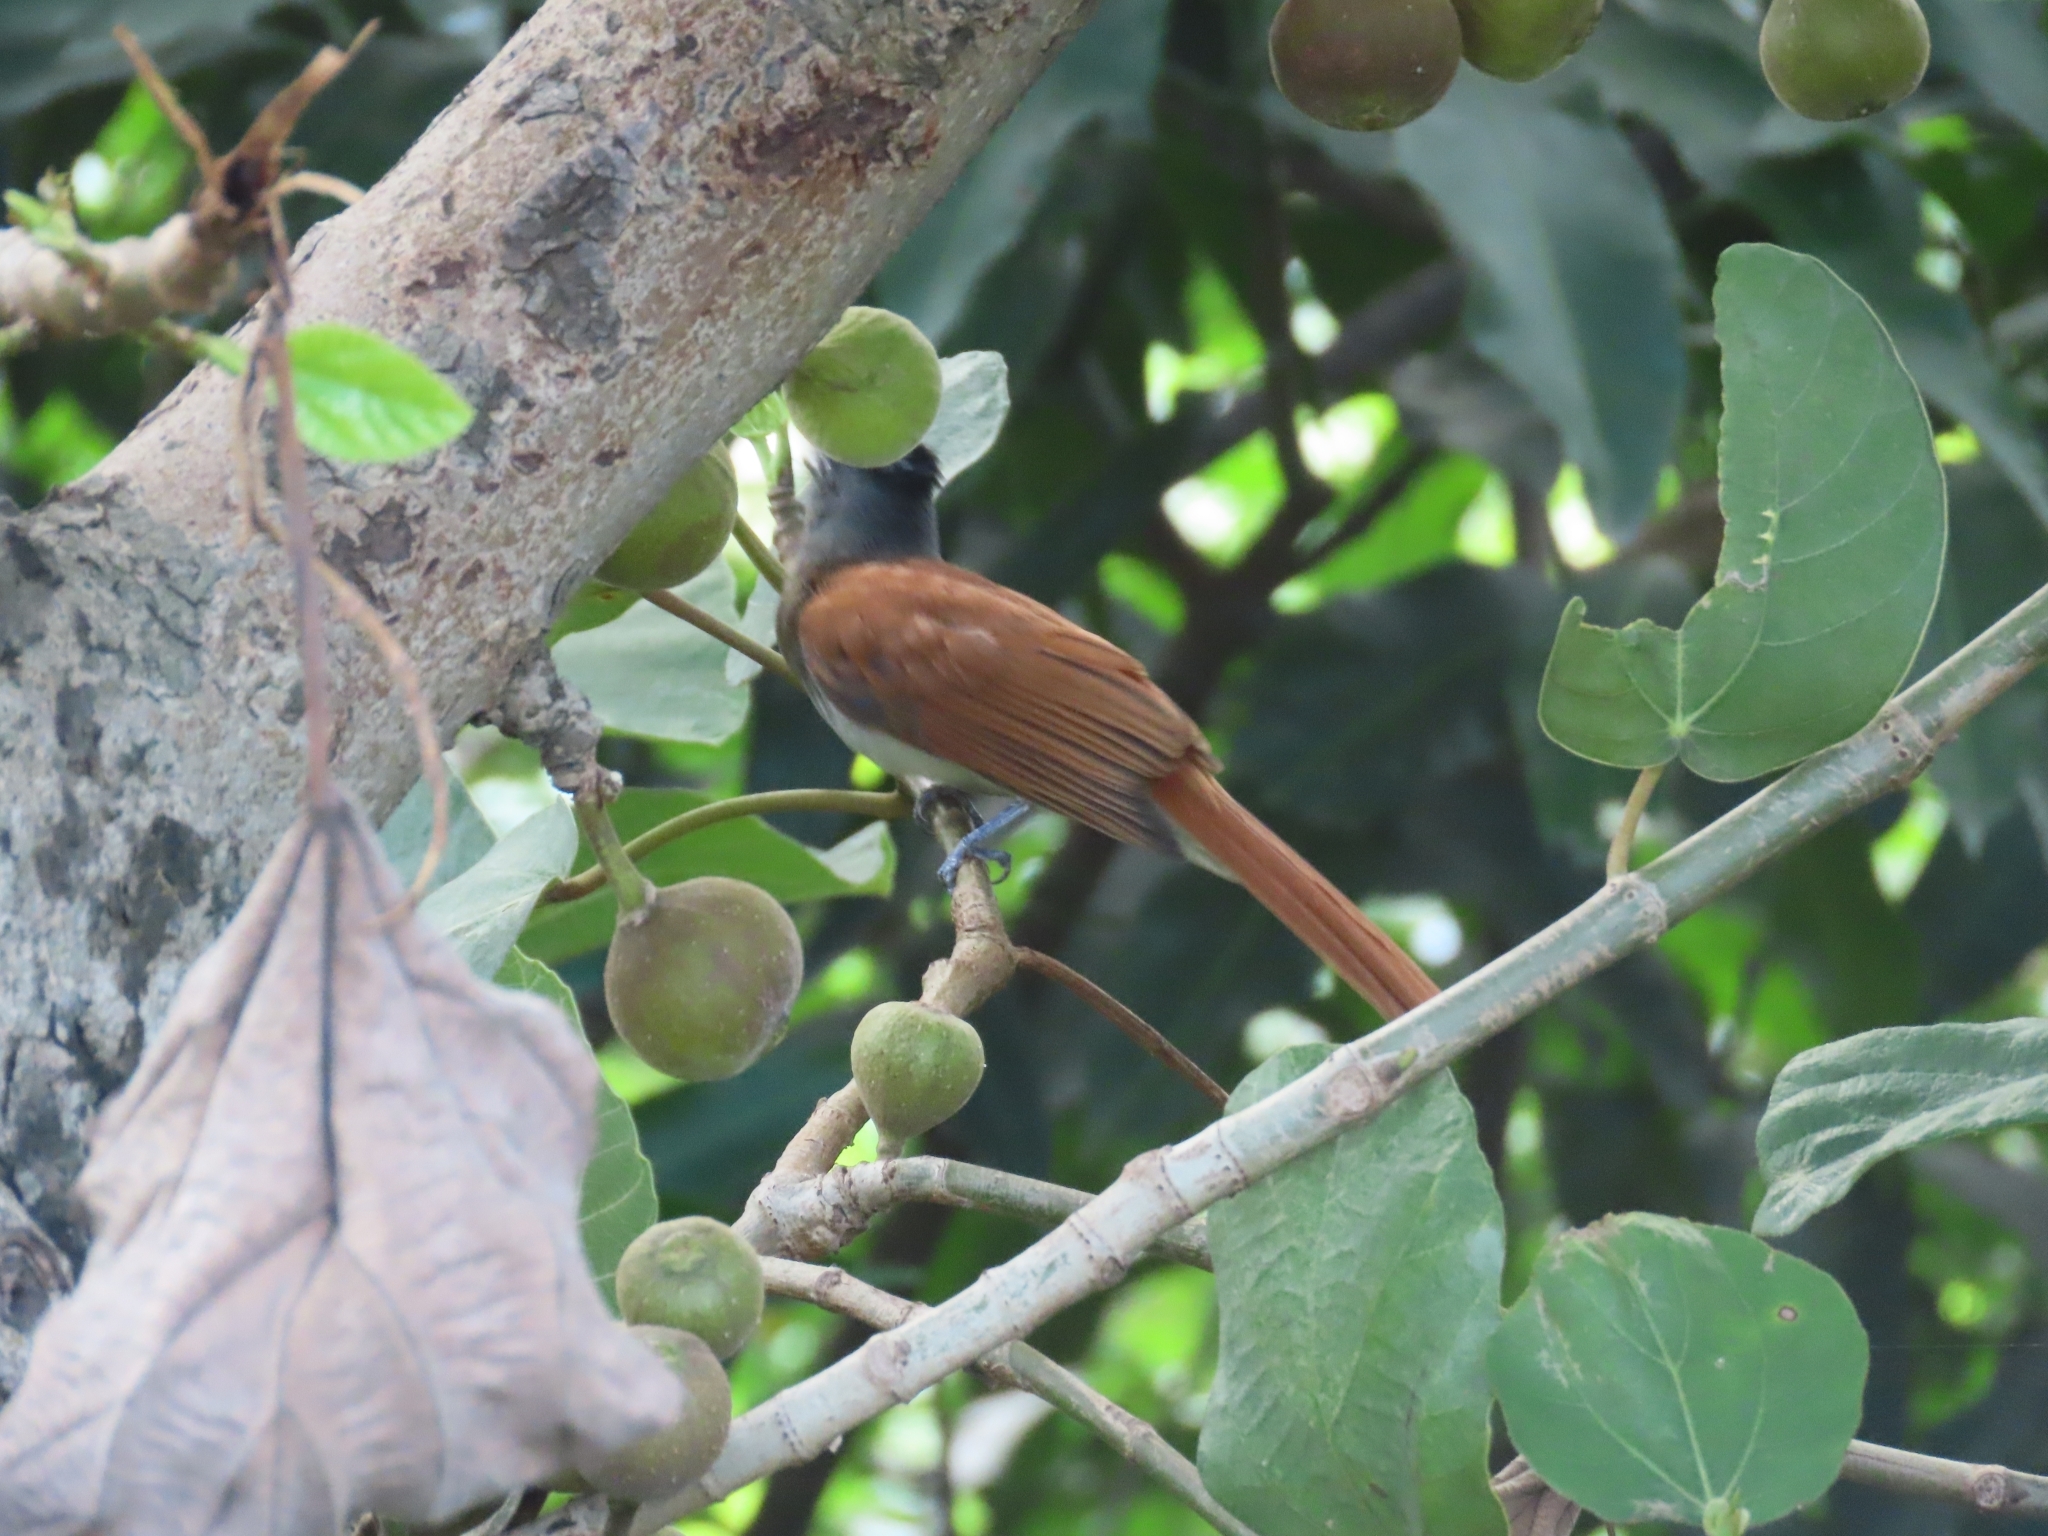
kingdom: Animalia
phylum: Chordata
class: Aves
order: Passeriformes
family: Monarchidae
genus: Terpsiphone
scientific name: Terpsiphone paradisi
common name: Indian paradise flycatcher
